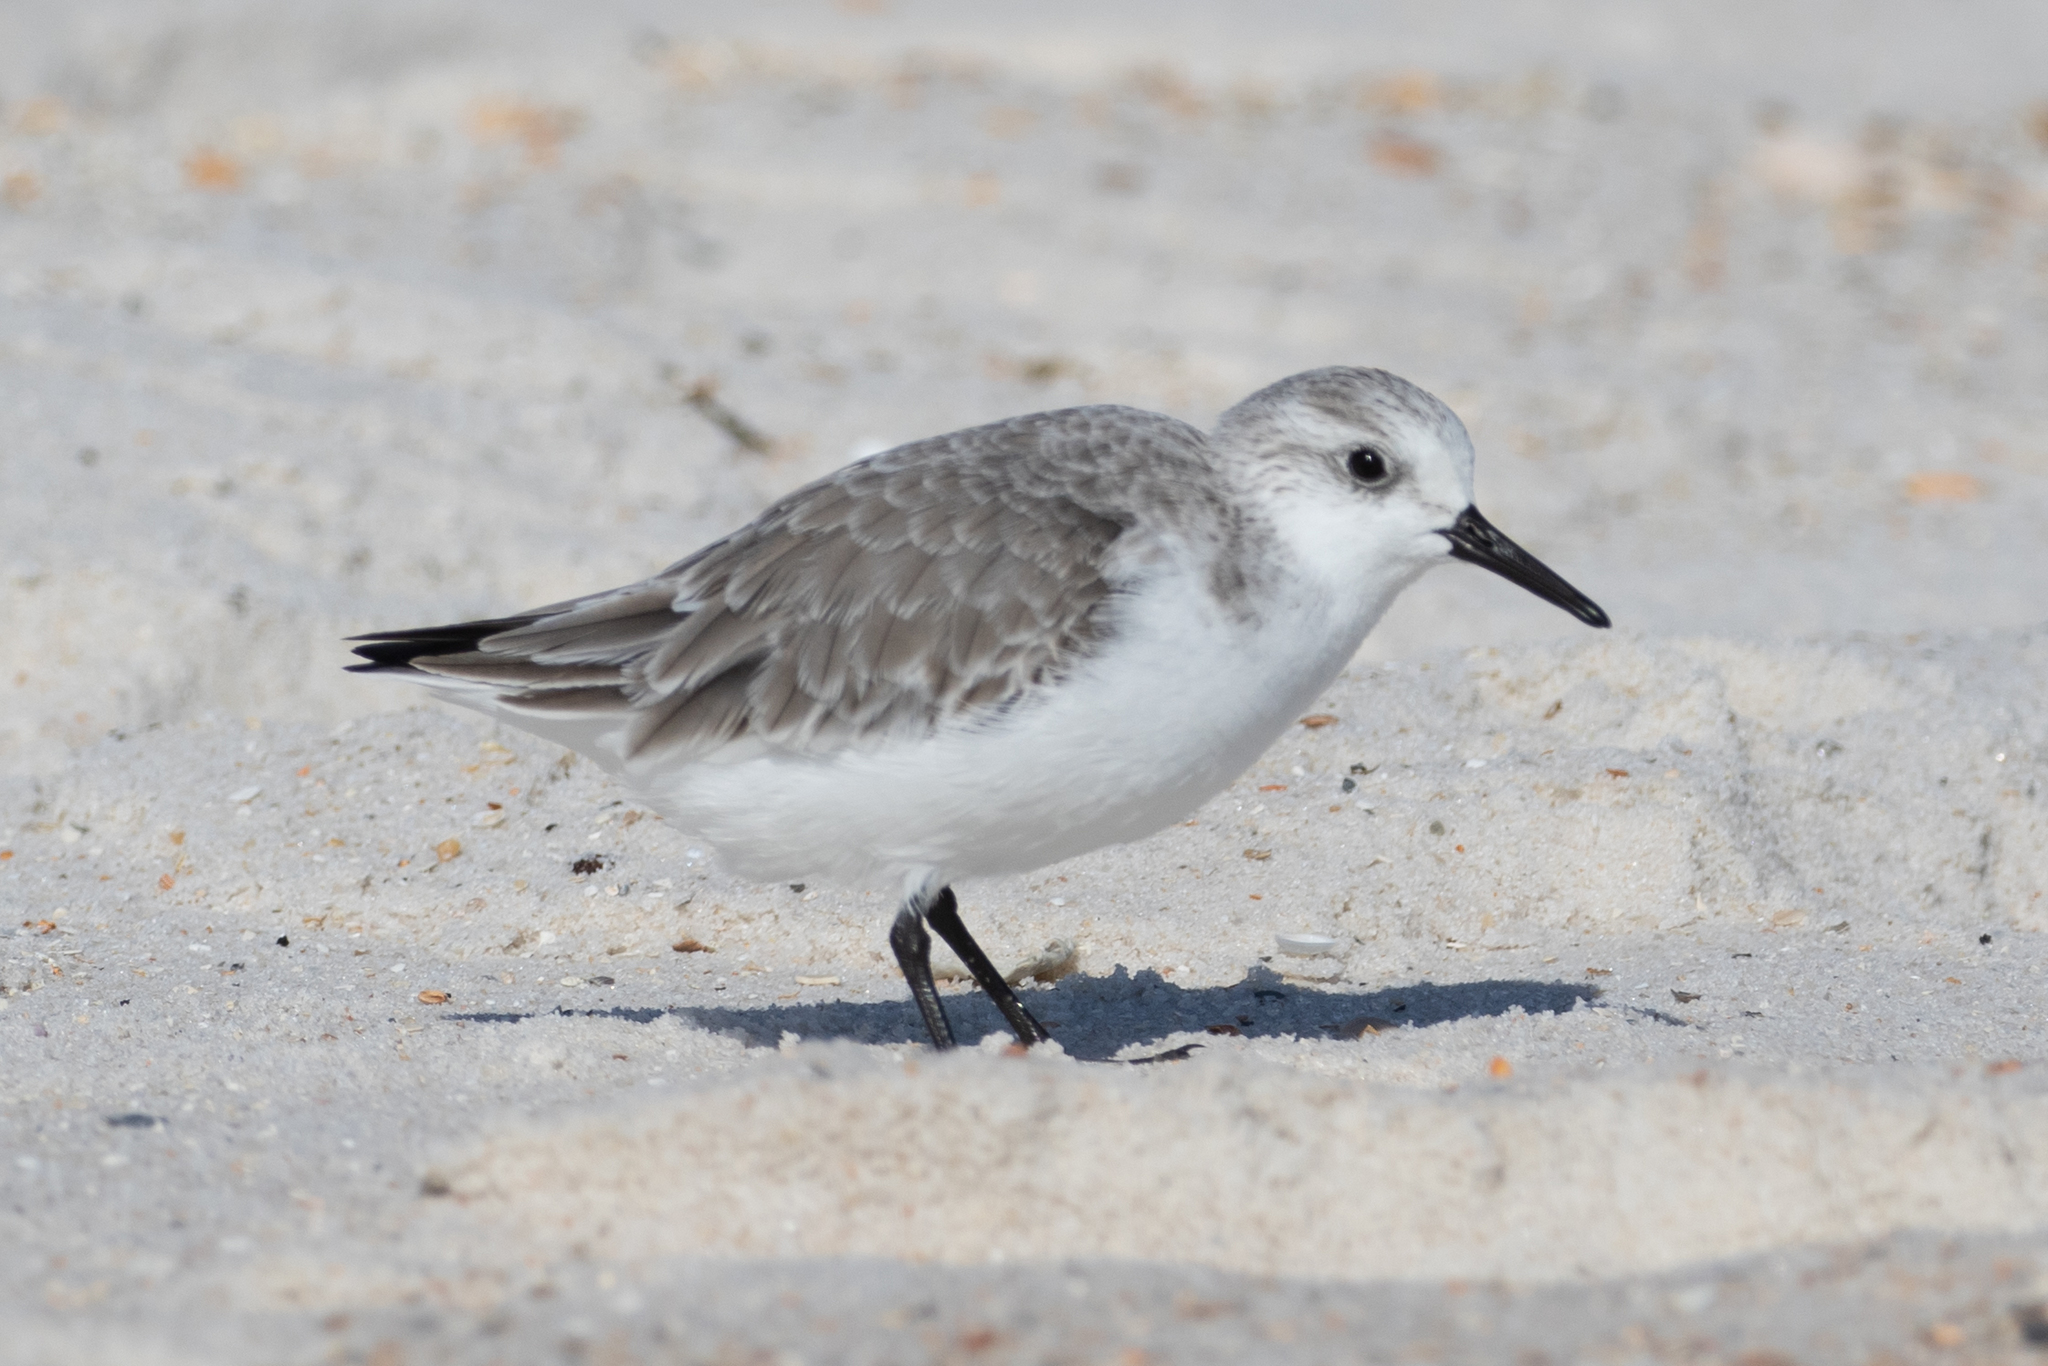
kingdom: Animalia
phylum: Chordata
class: Aves
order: Charadriiformes
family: Scolopacidae
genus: Calidris
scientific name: Calidris alba
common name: Sanderling
